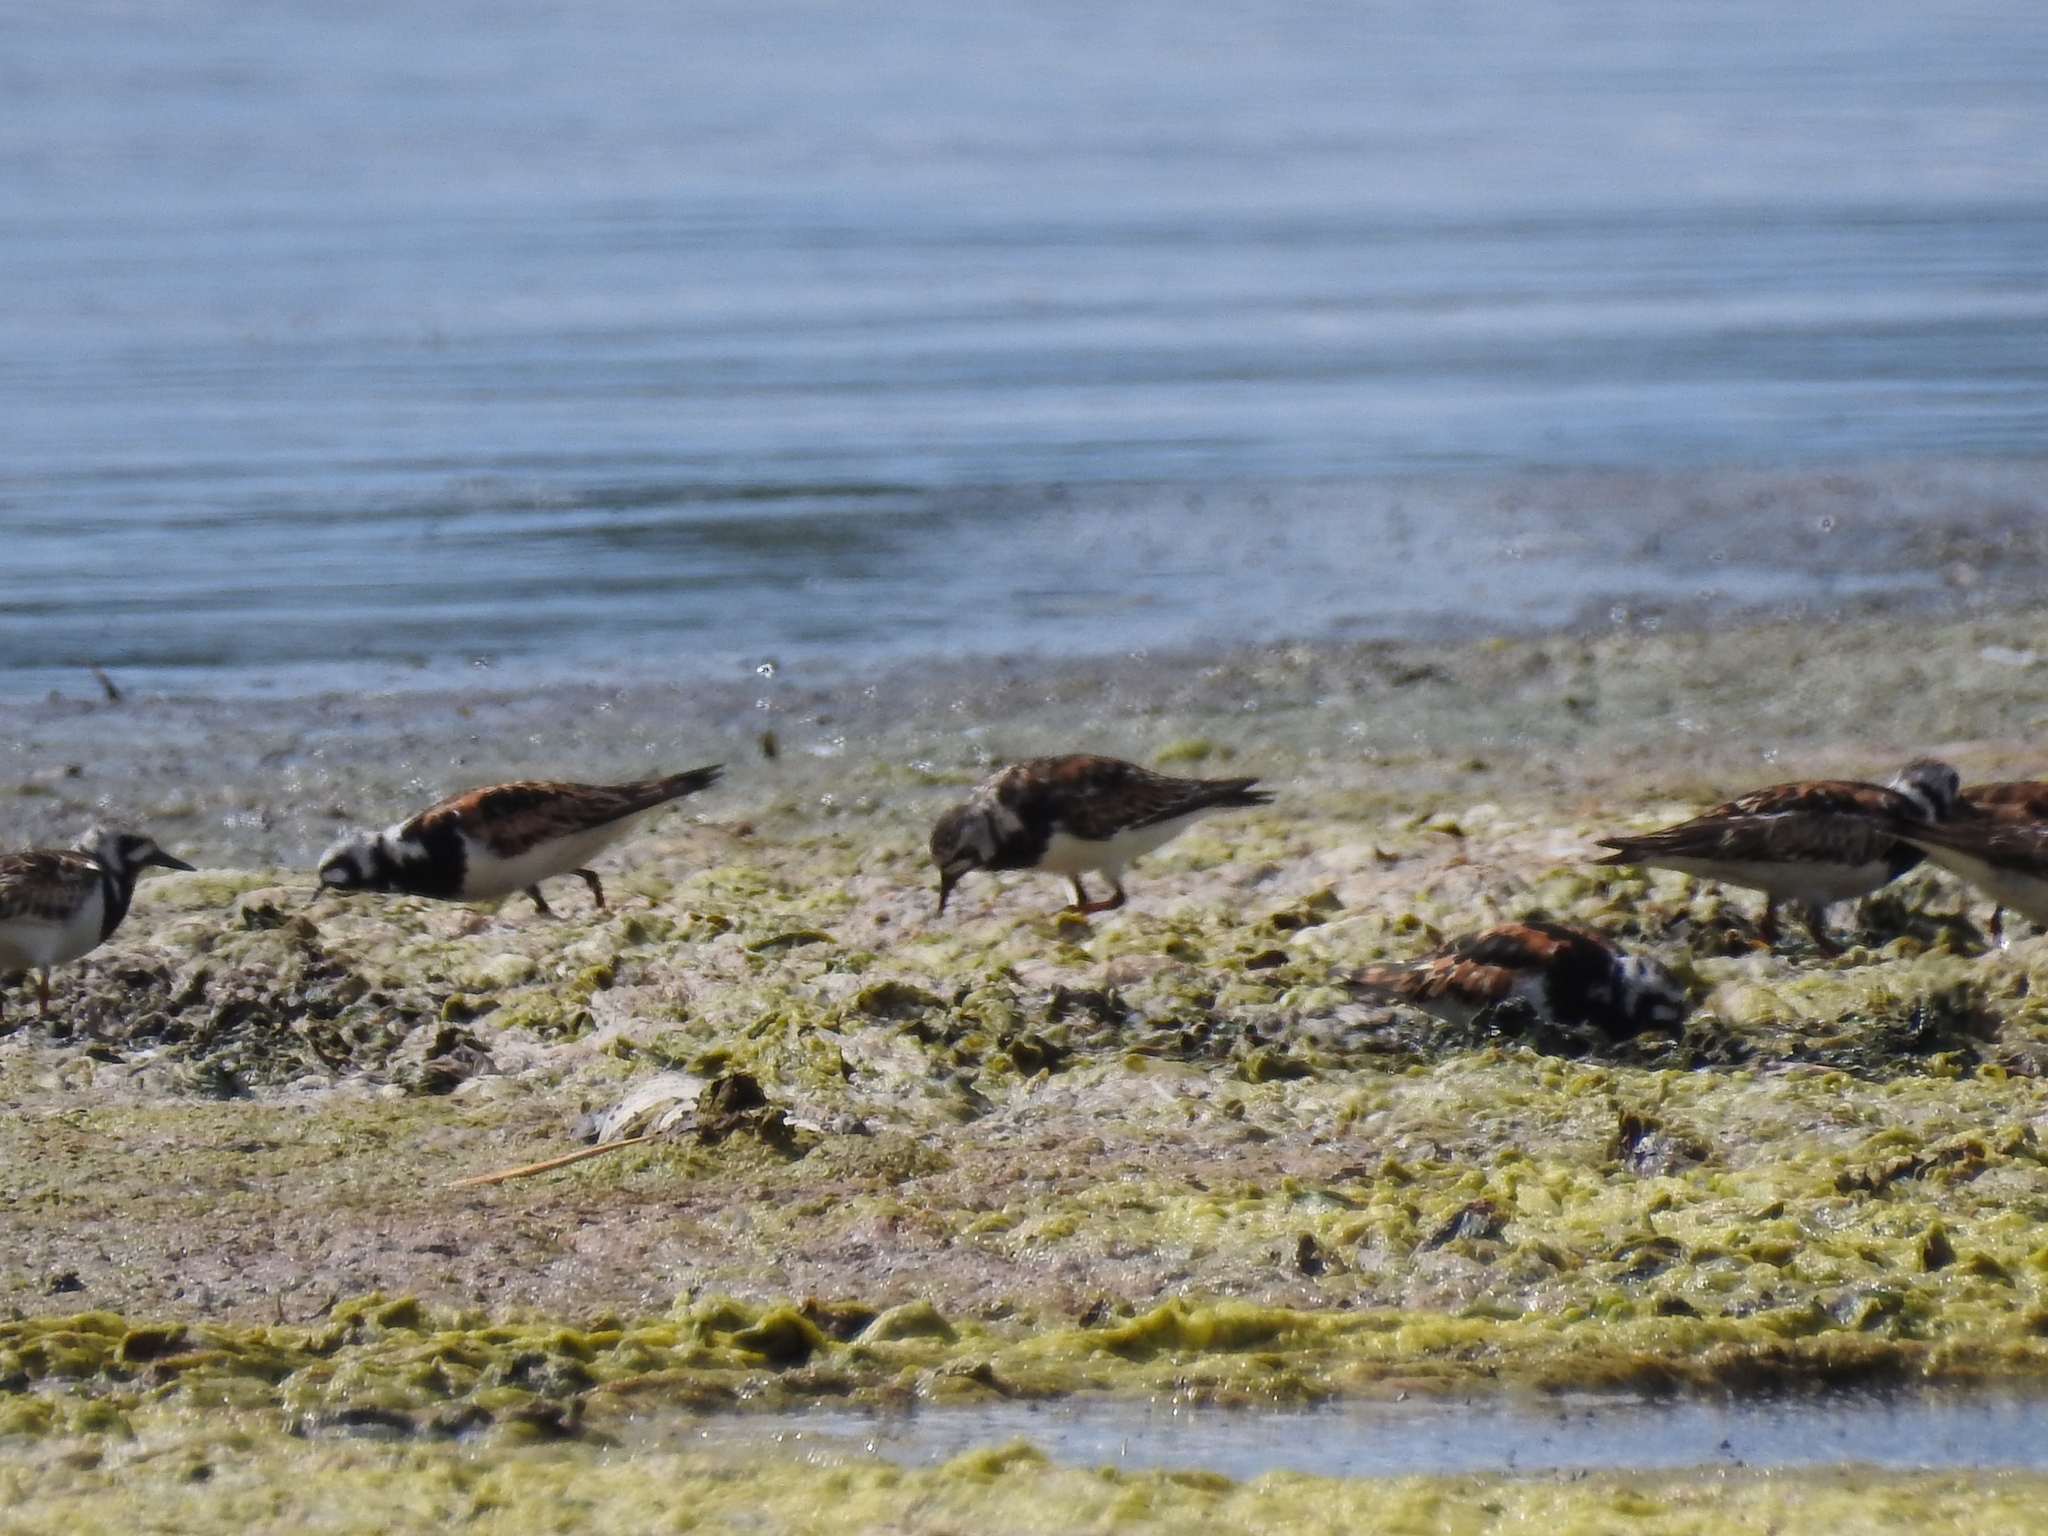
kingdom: Animalia
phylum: Chordata
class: Aves
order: Charadriiformes
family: Scolopacidae
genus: Arenaria
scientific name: Arenaria interpres
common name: Ruddy turnstone
